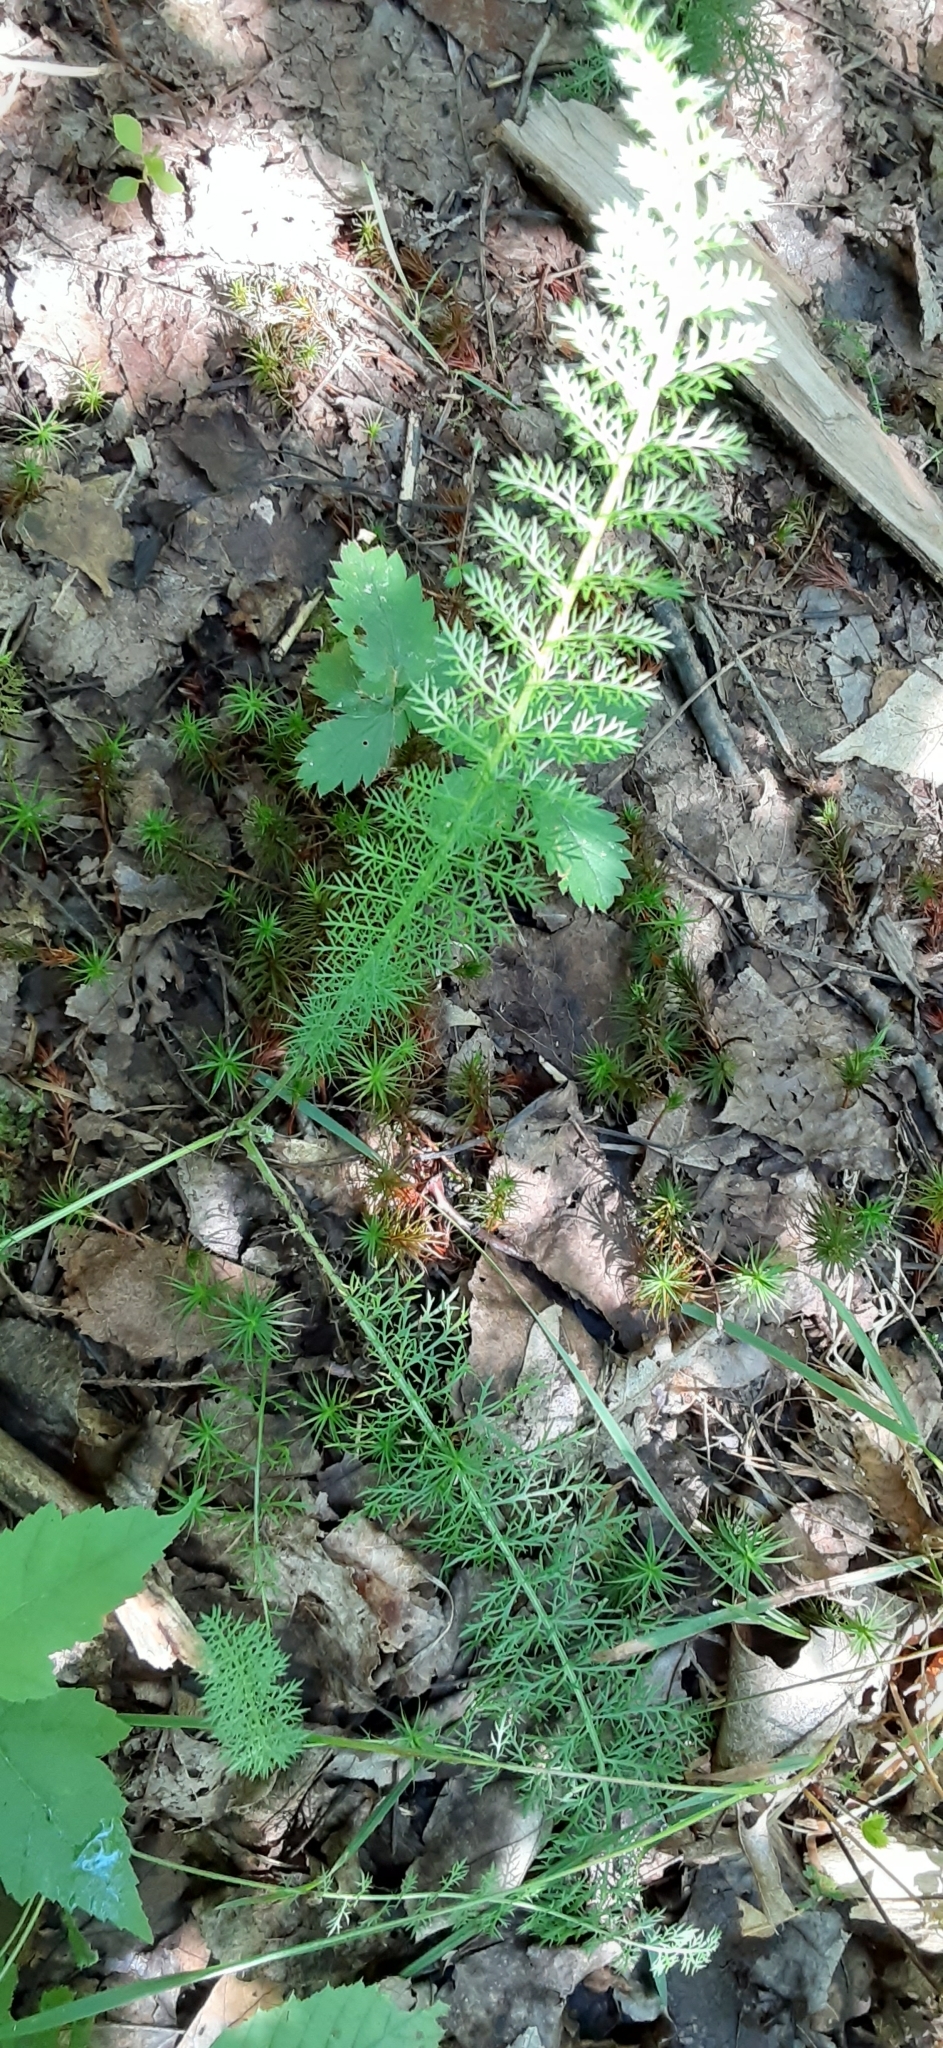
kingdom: Plantae
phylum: Tracheophyta
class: Magnoliopsida
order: Asterales
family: Asteraceae
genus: Achillea
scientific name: Achillea millefolium
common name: Yarrow
